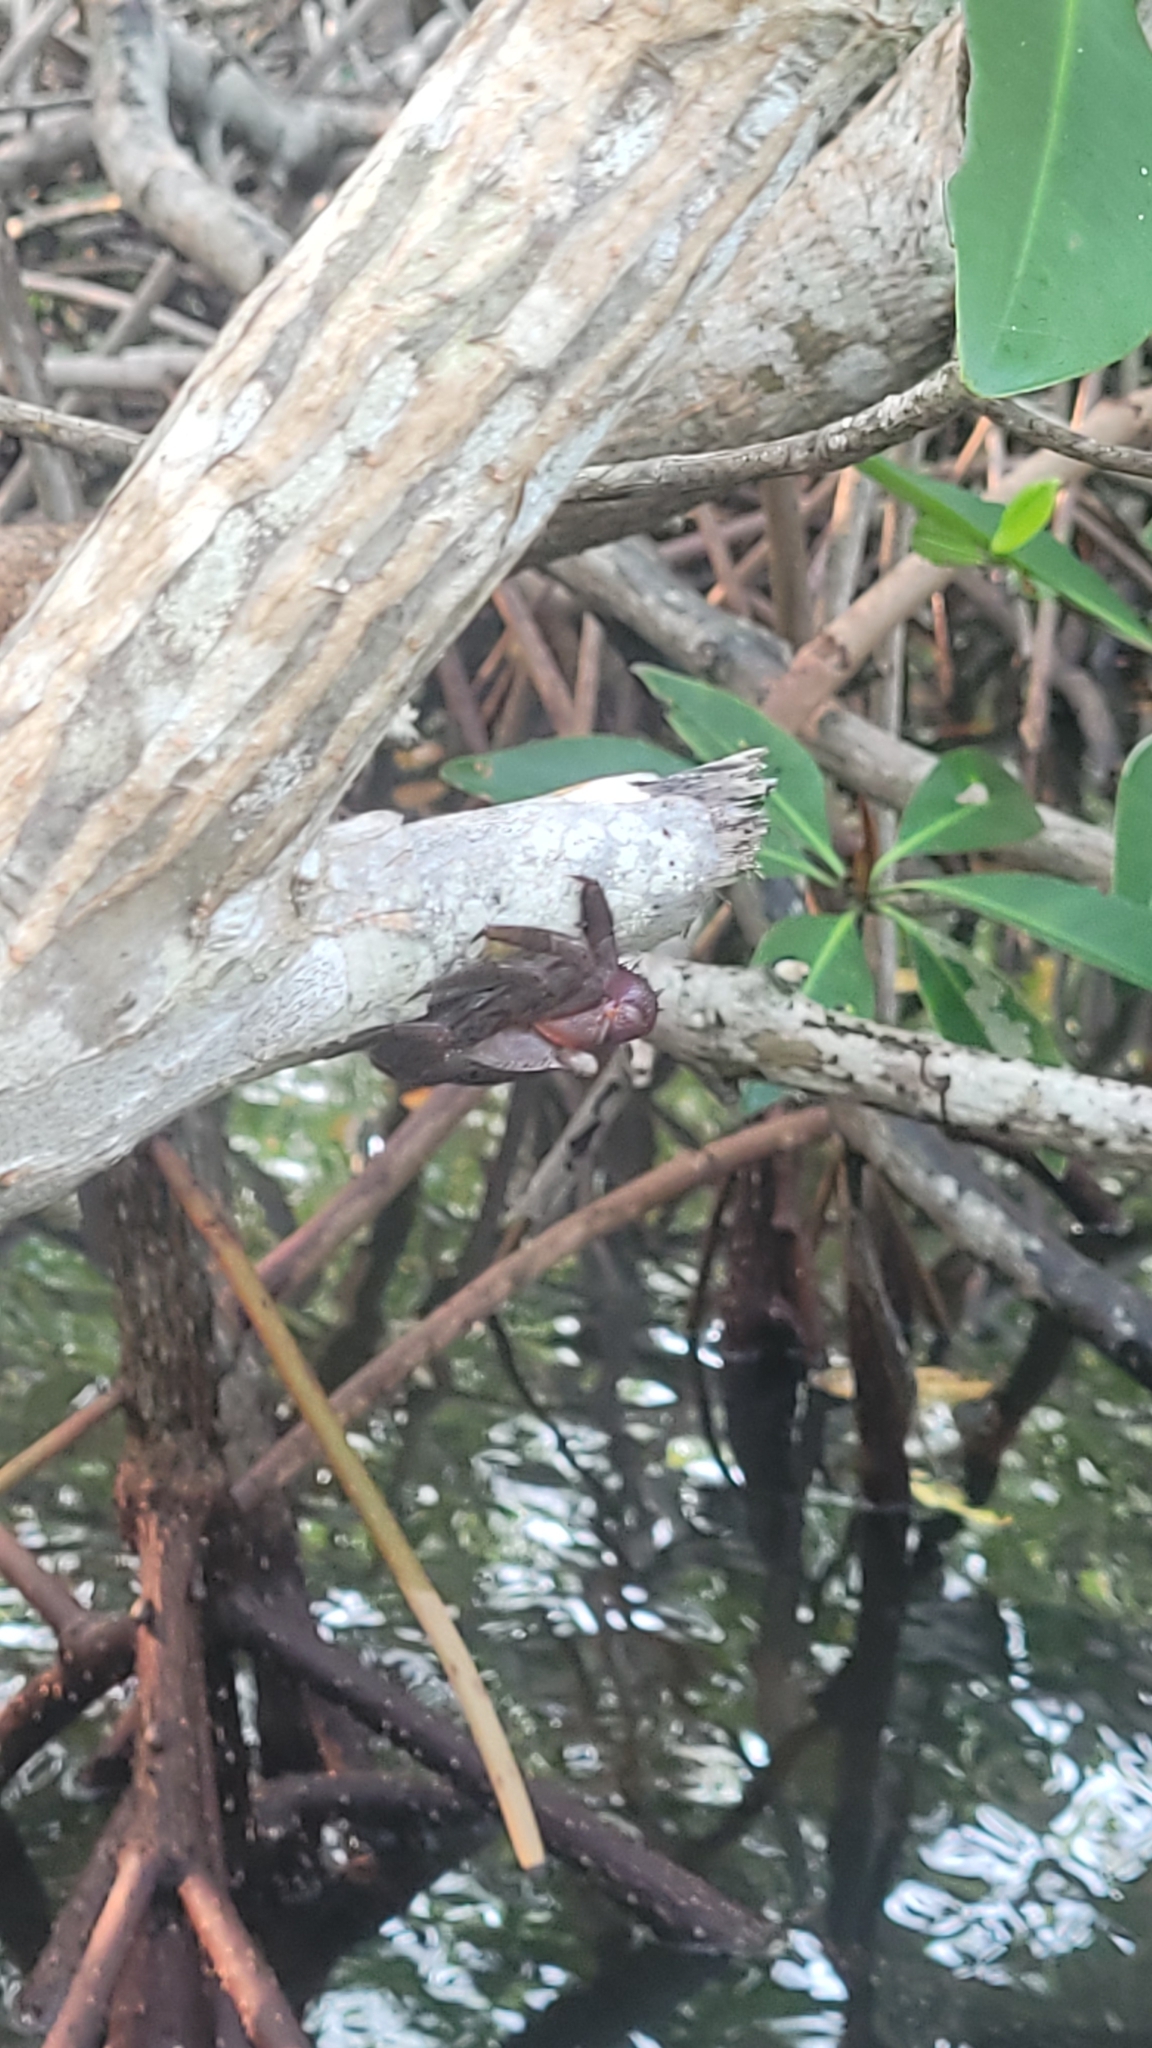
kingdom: Animalia
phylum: Arthropoda
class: Malacostraca
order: Decapoda
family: Sesarmidae
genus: Aratus
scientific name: Aratus pisonii
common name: Mangrove crab
